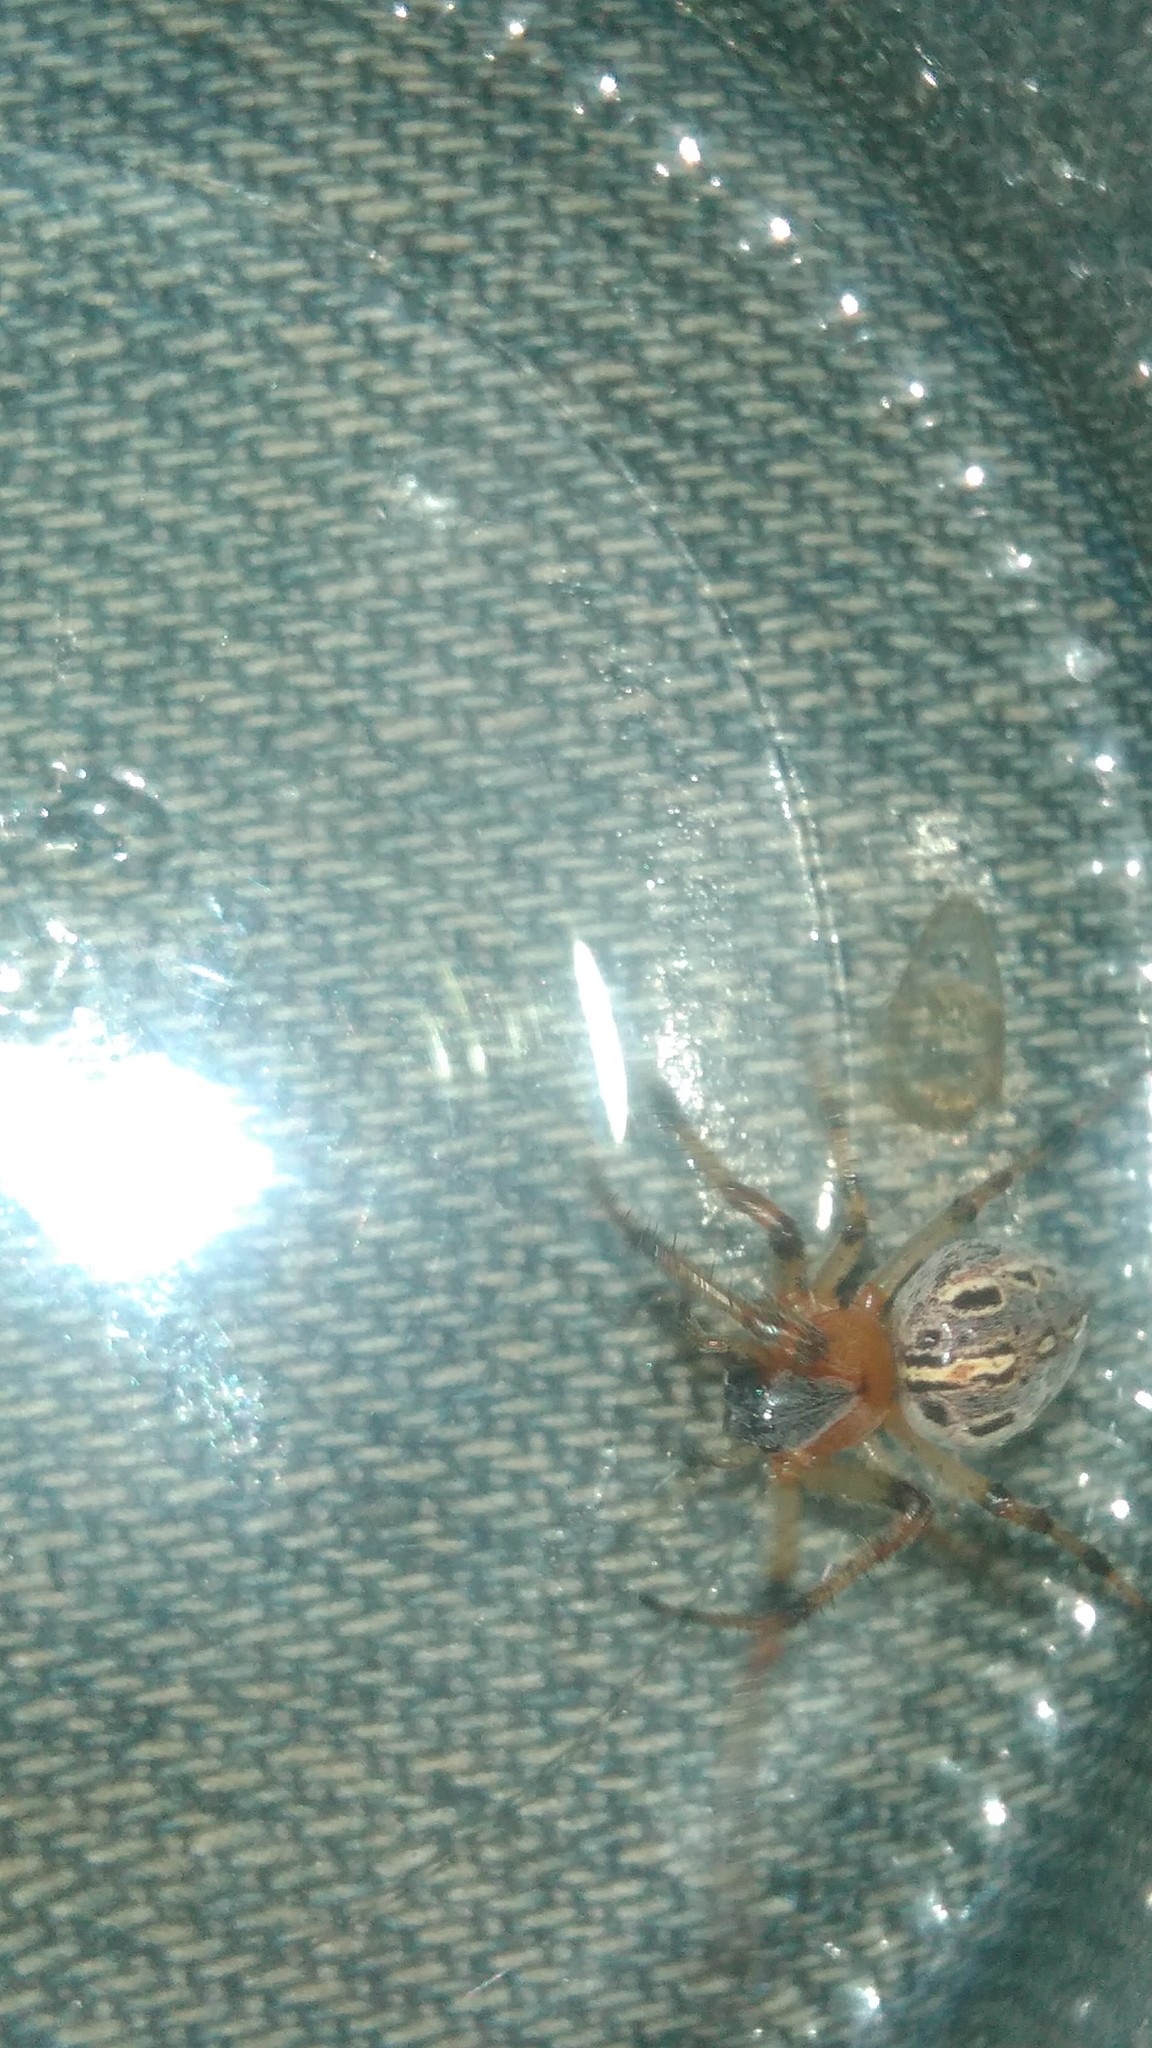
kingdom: Animalia
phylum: Arthropoda
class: Arachnida
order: Araneae
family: Araneidae
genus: Alpaida
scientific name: Alpaida veniliae
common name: Orb weavers
